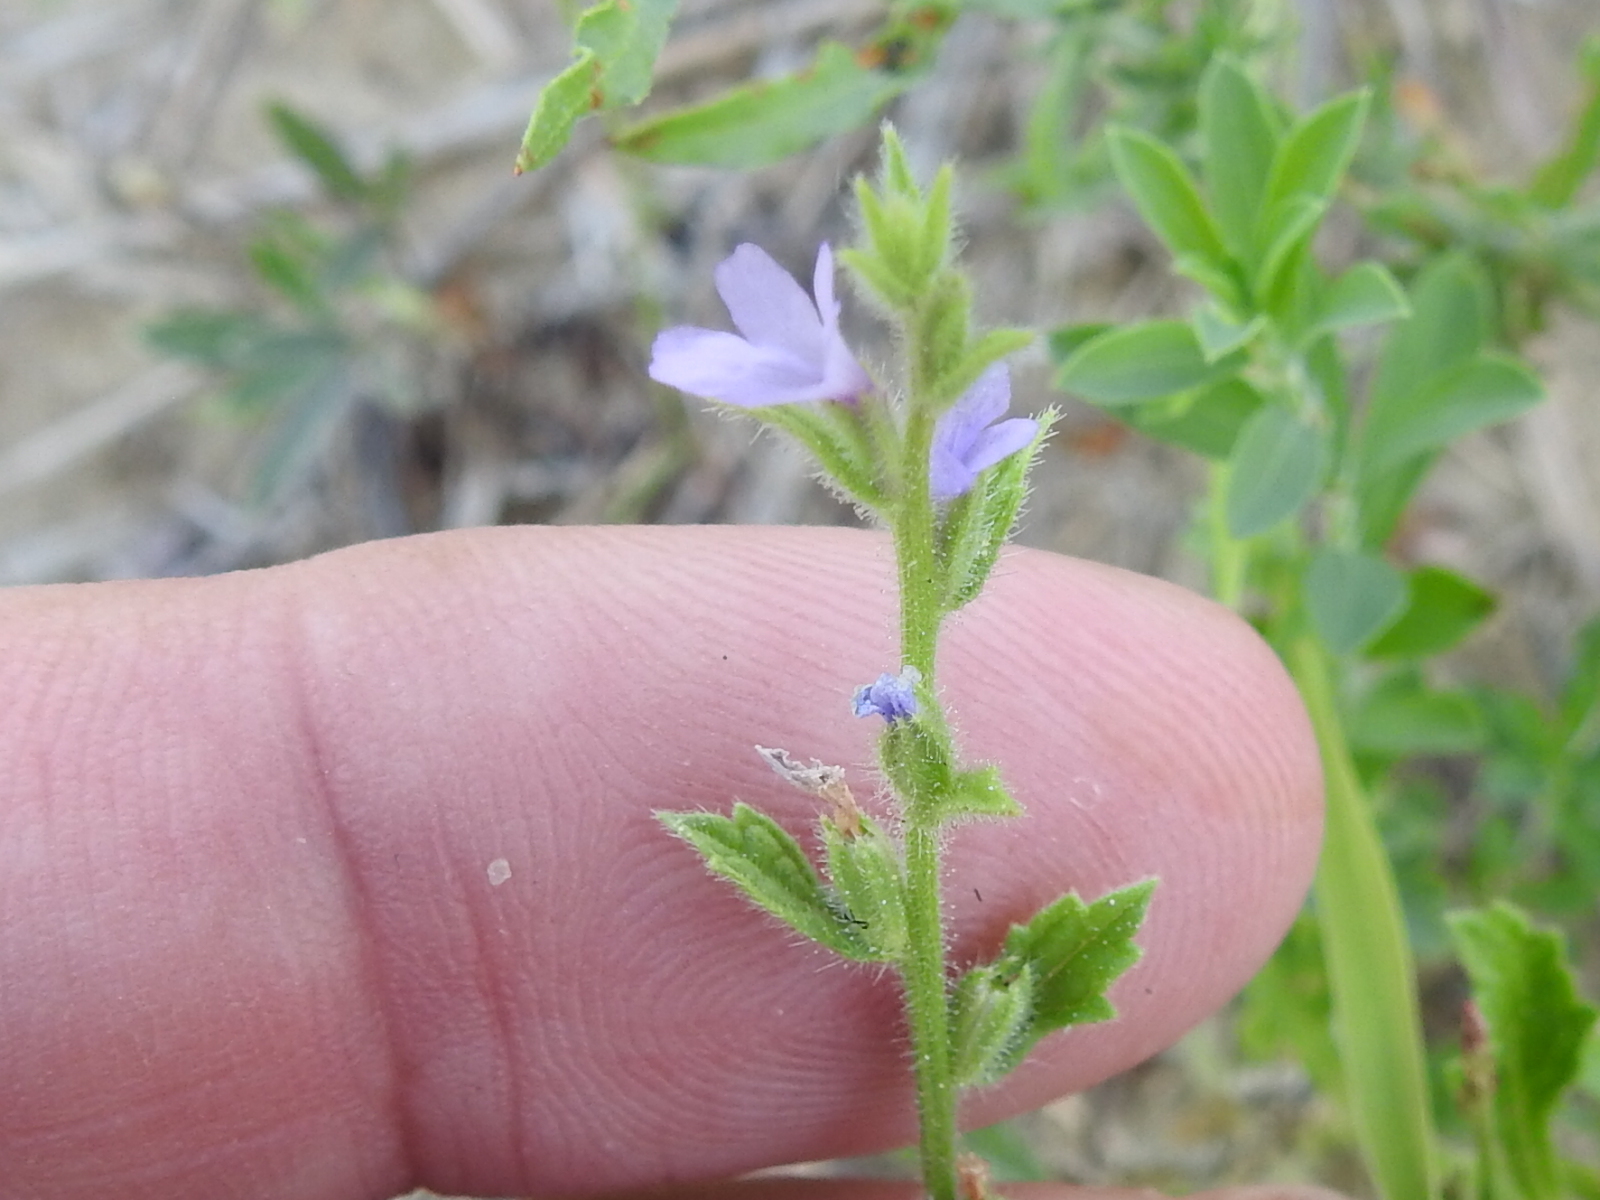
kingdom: Plantae
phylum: Tracheophyta
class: Magnoliopsida
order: Lamiales
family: Verbenaceae
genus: Verbena
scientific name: Verbena canescens
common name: Gray vervain
